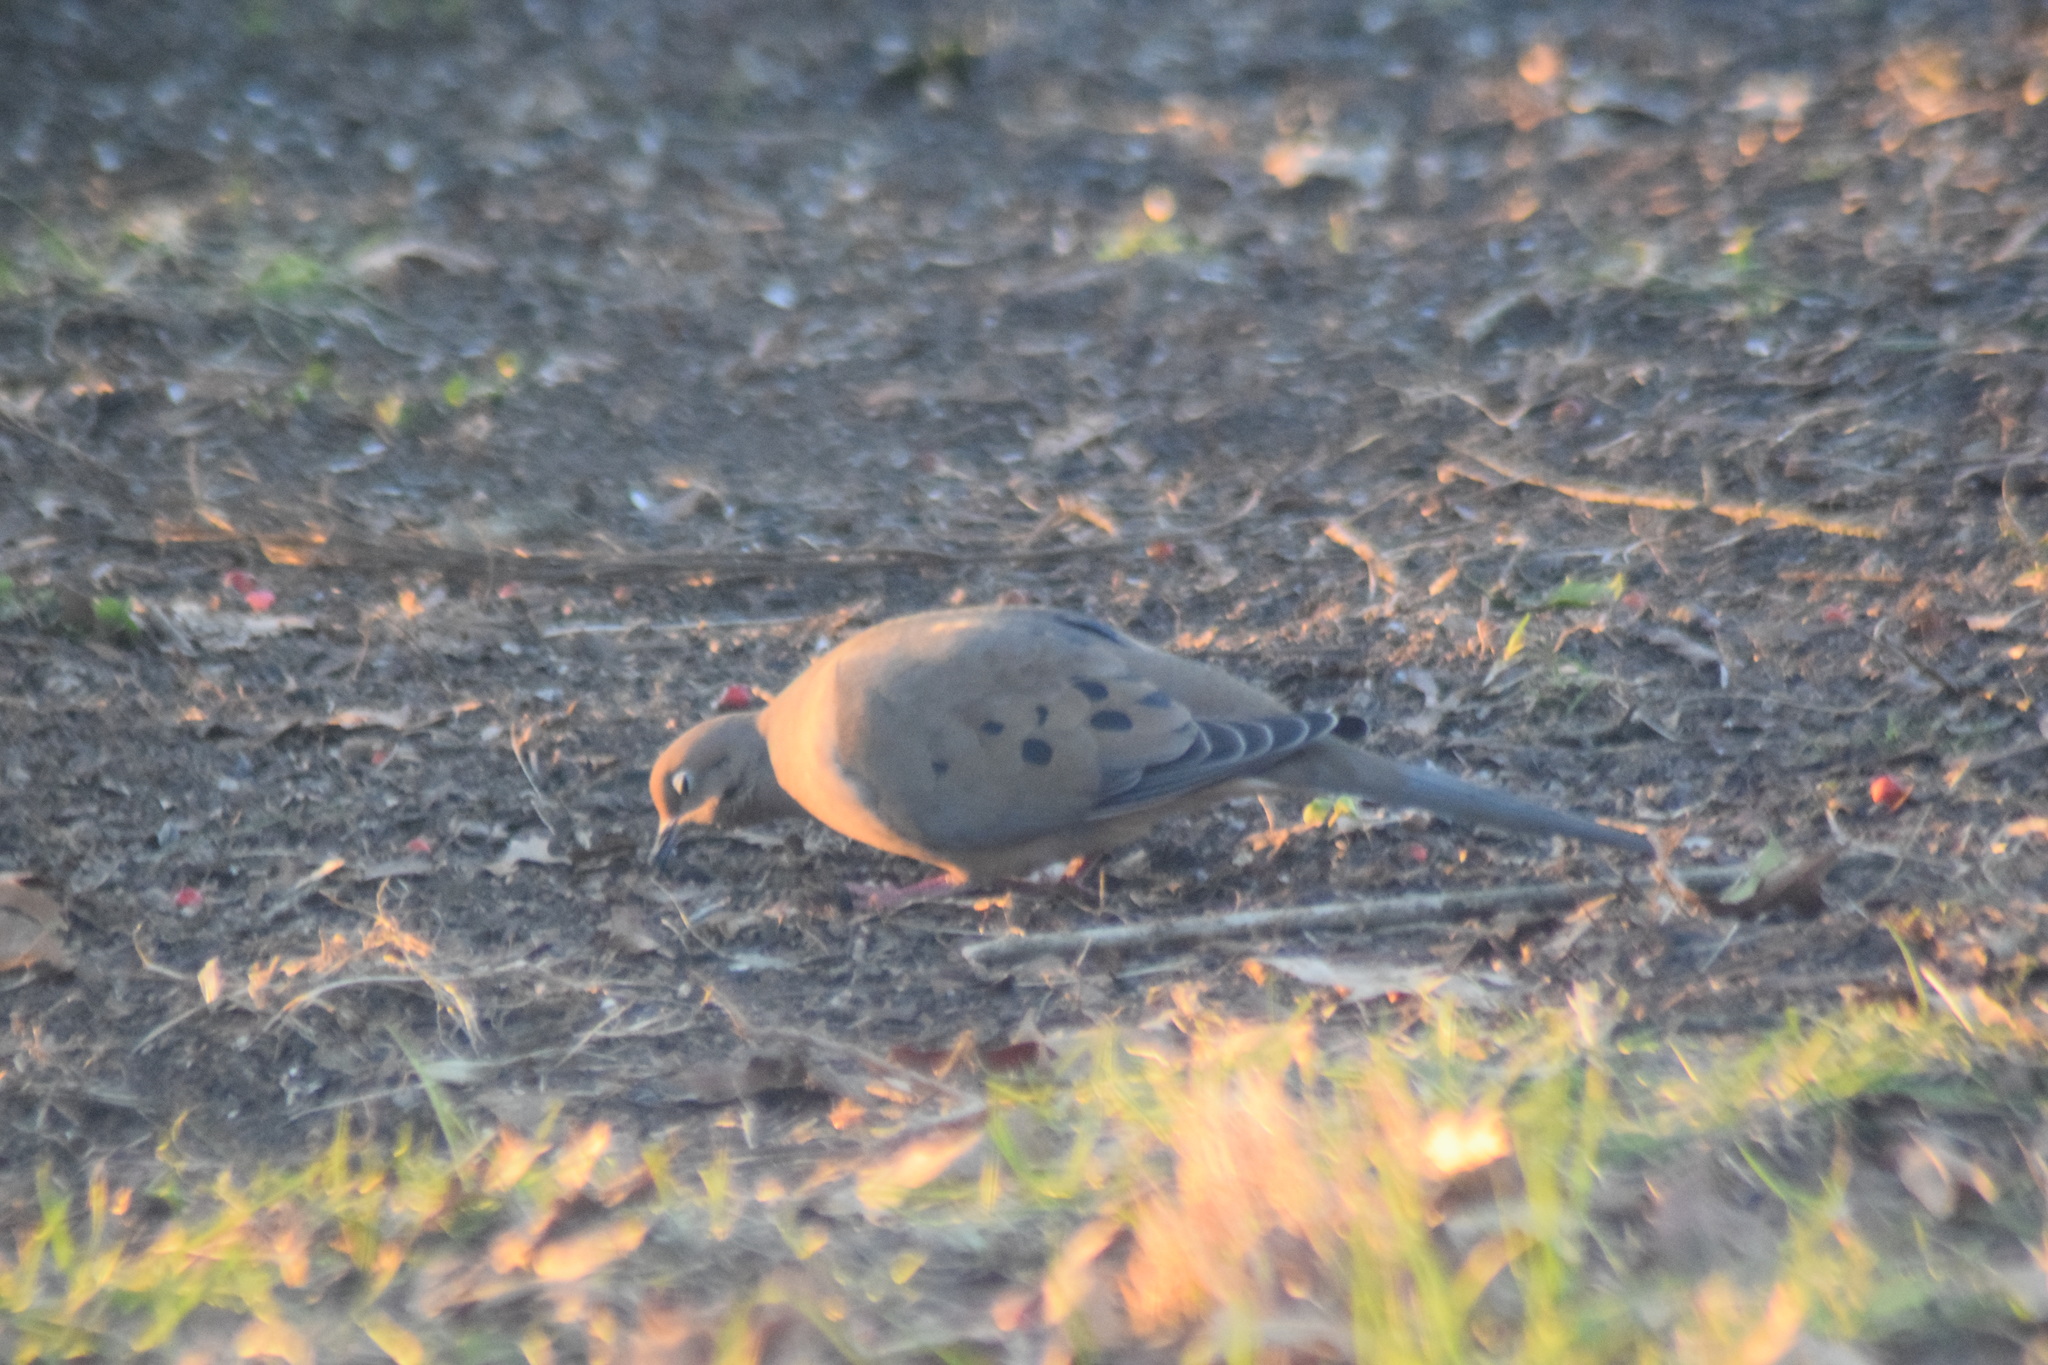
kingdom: Animalia
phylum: Chordata
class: Aves
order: Columbiformes
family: Columbidae
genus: Zenaida
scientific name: Zenaida macroura
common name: Mourning dove
